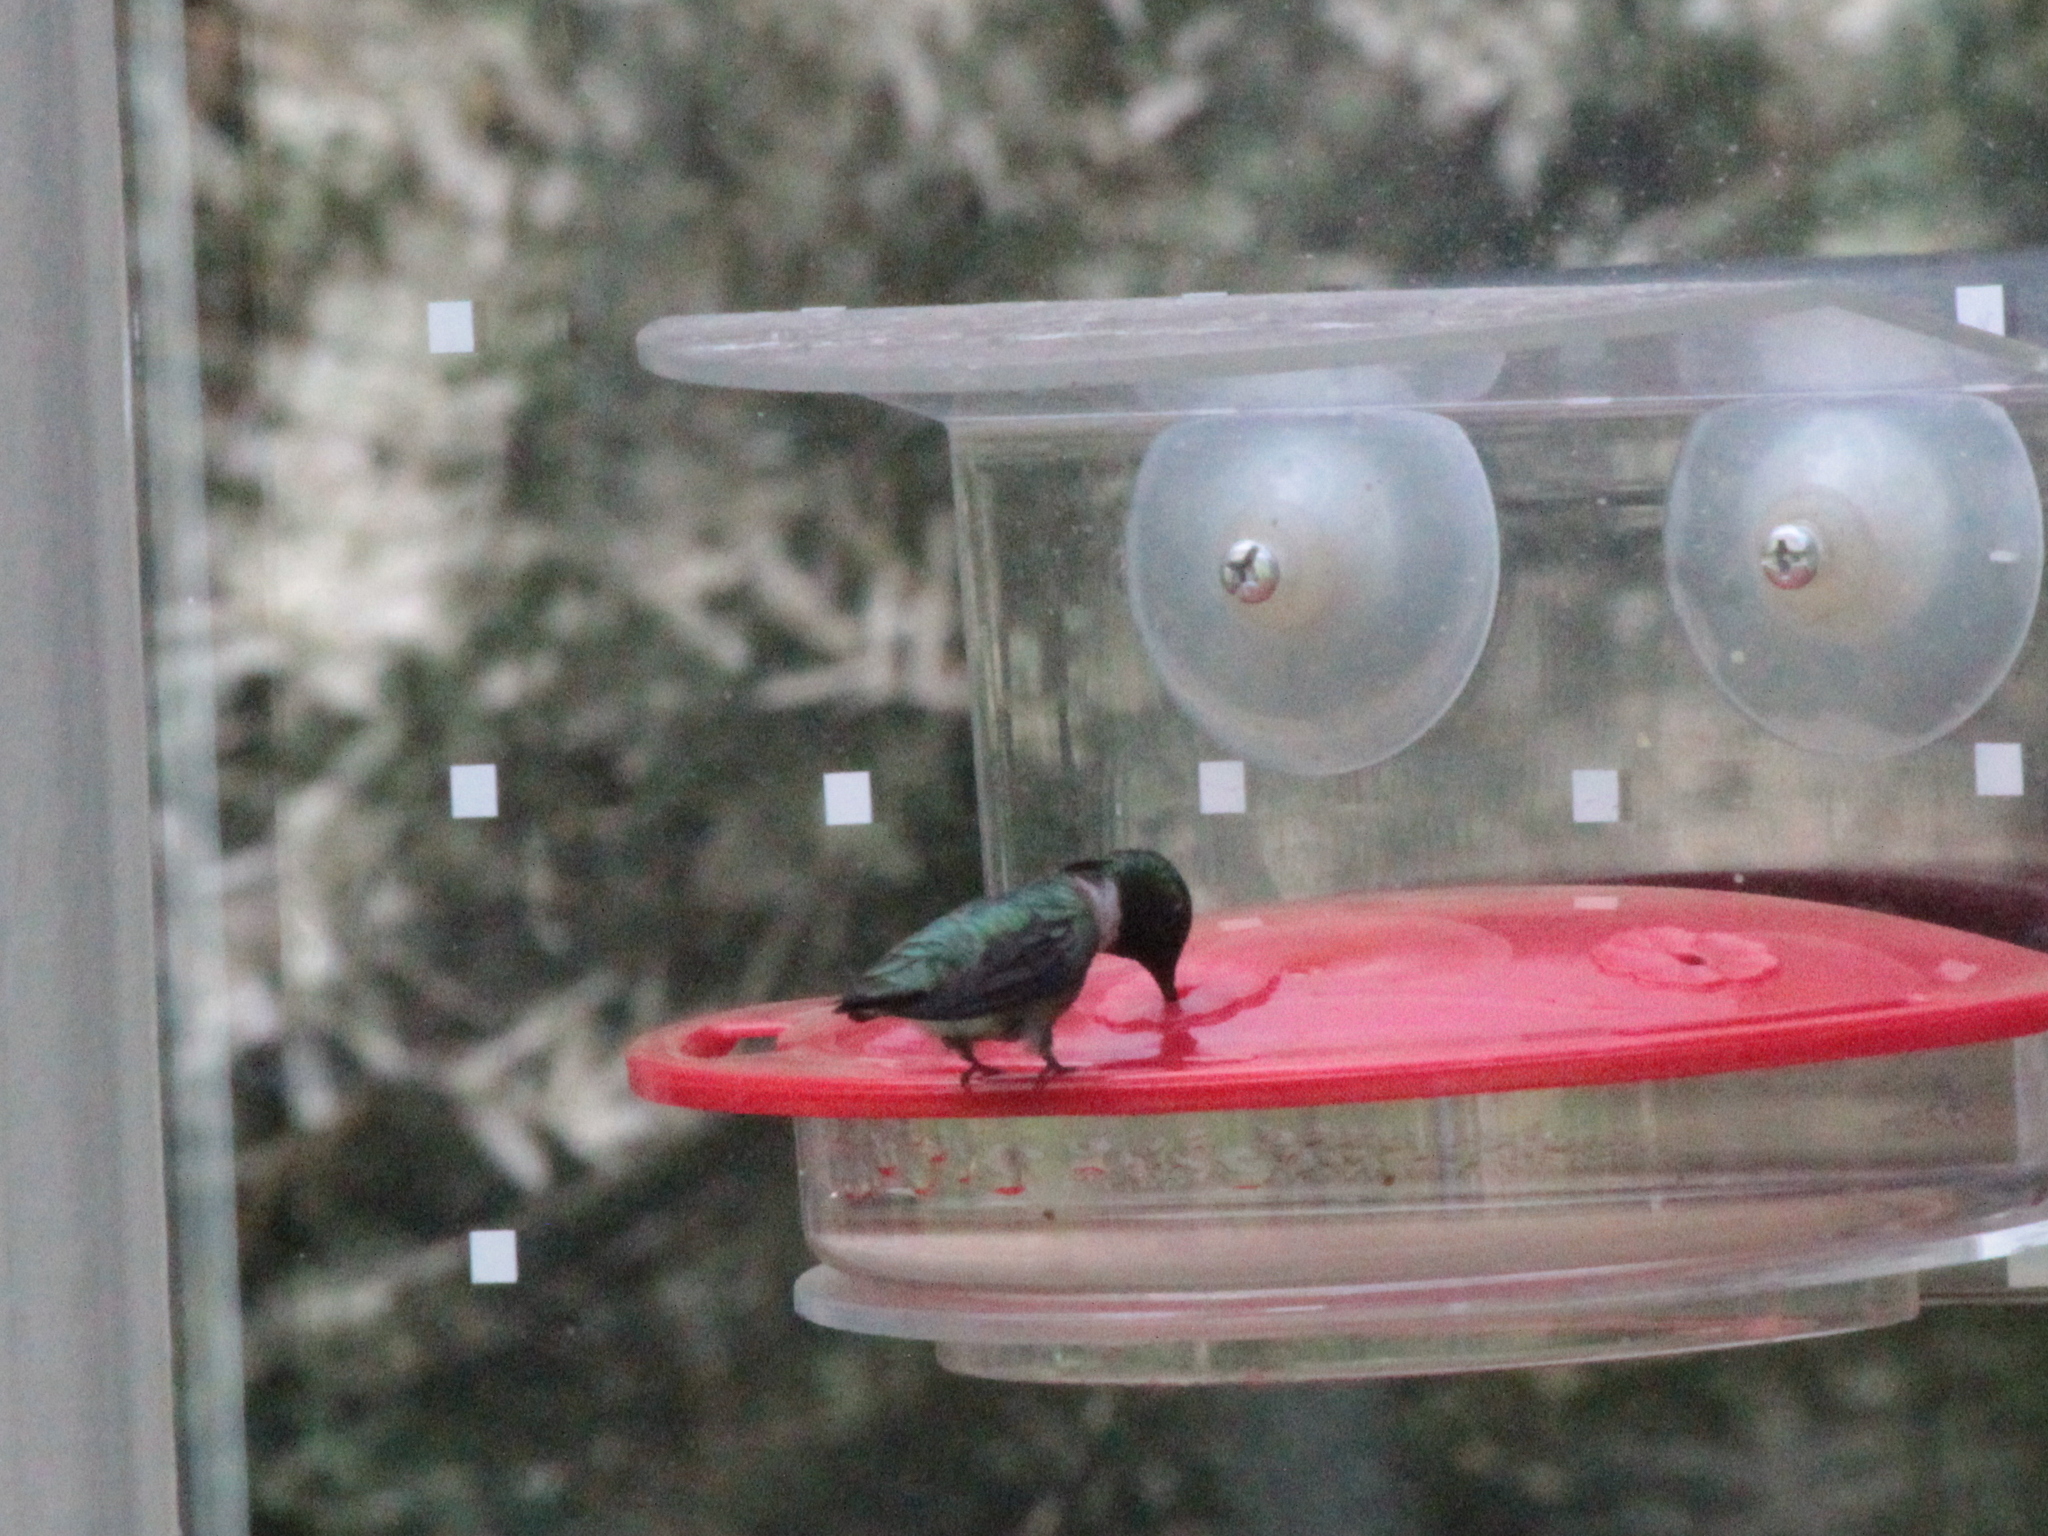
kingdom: Animalia
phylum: Chordata
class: Aves
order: Apodiformes
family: Trochilidae
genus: Archilochus
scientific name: Archilochus colubris
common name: Ruby-throated hummingbird
